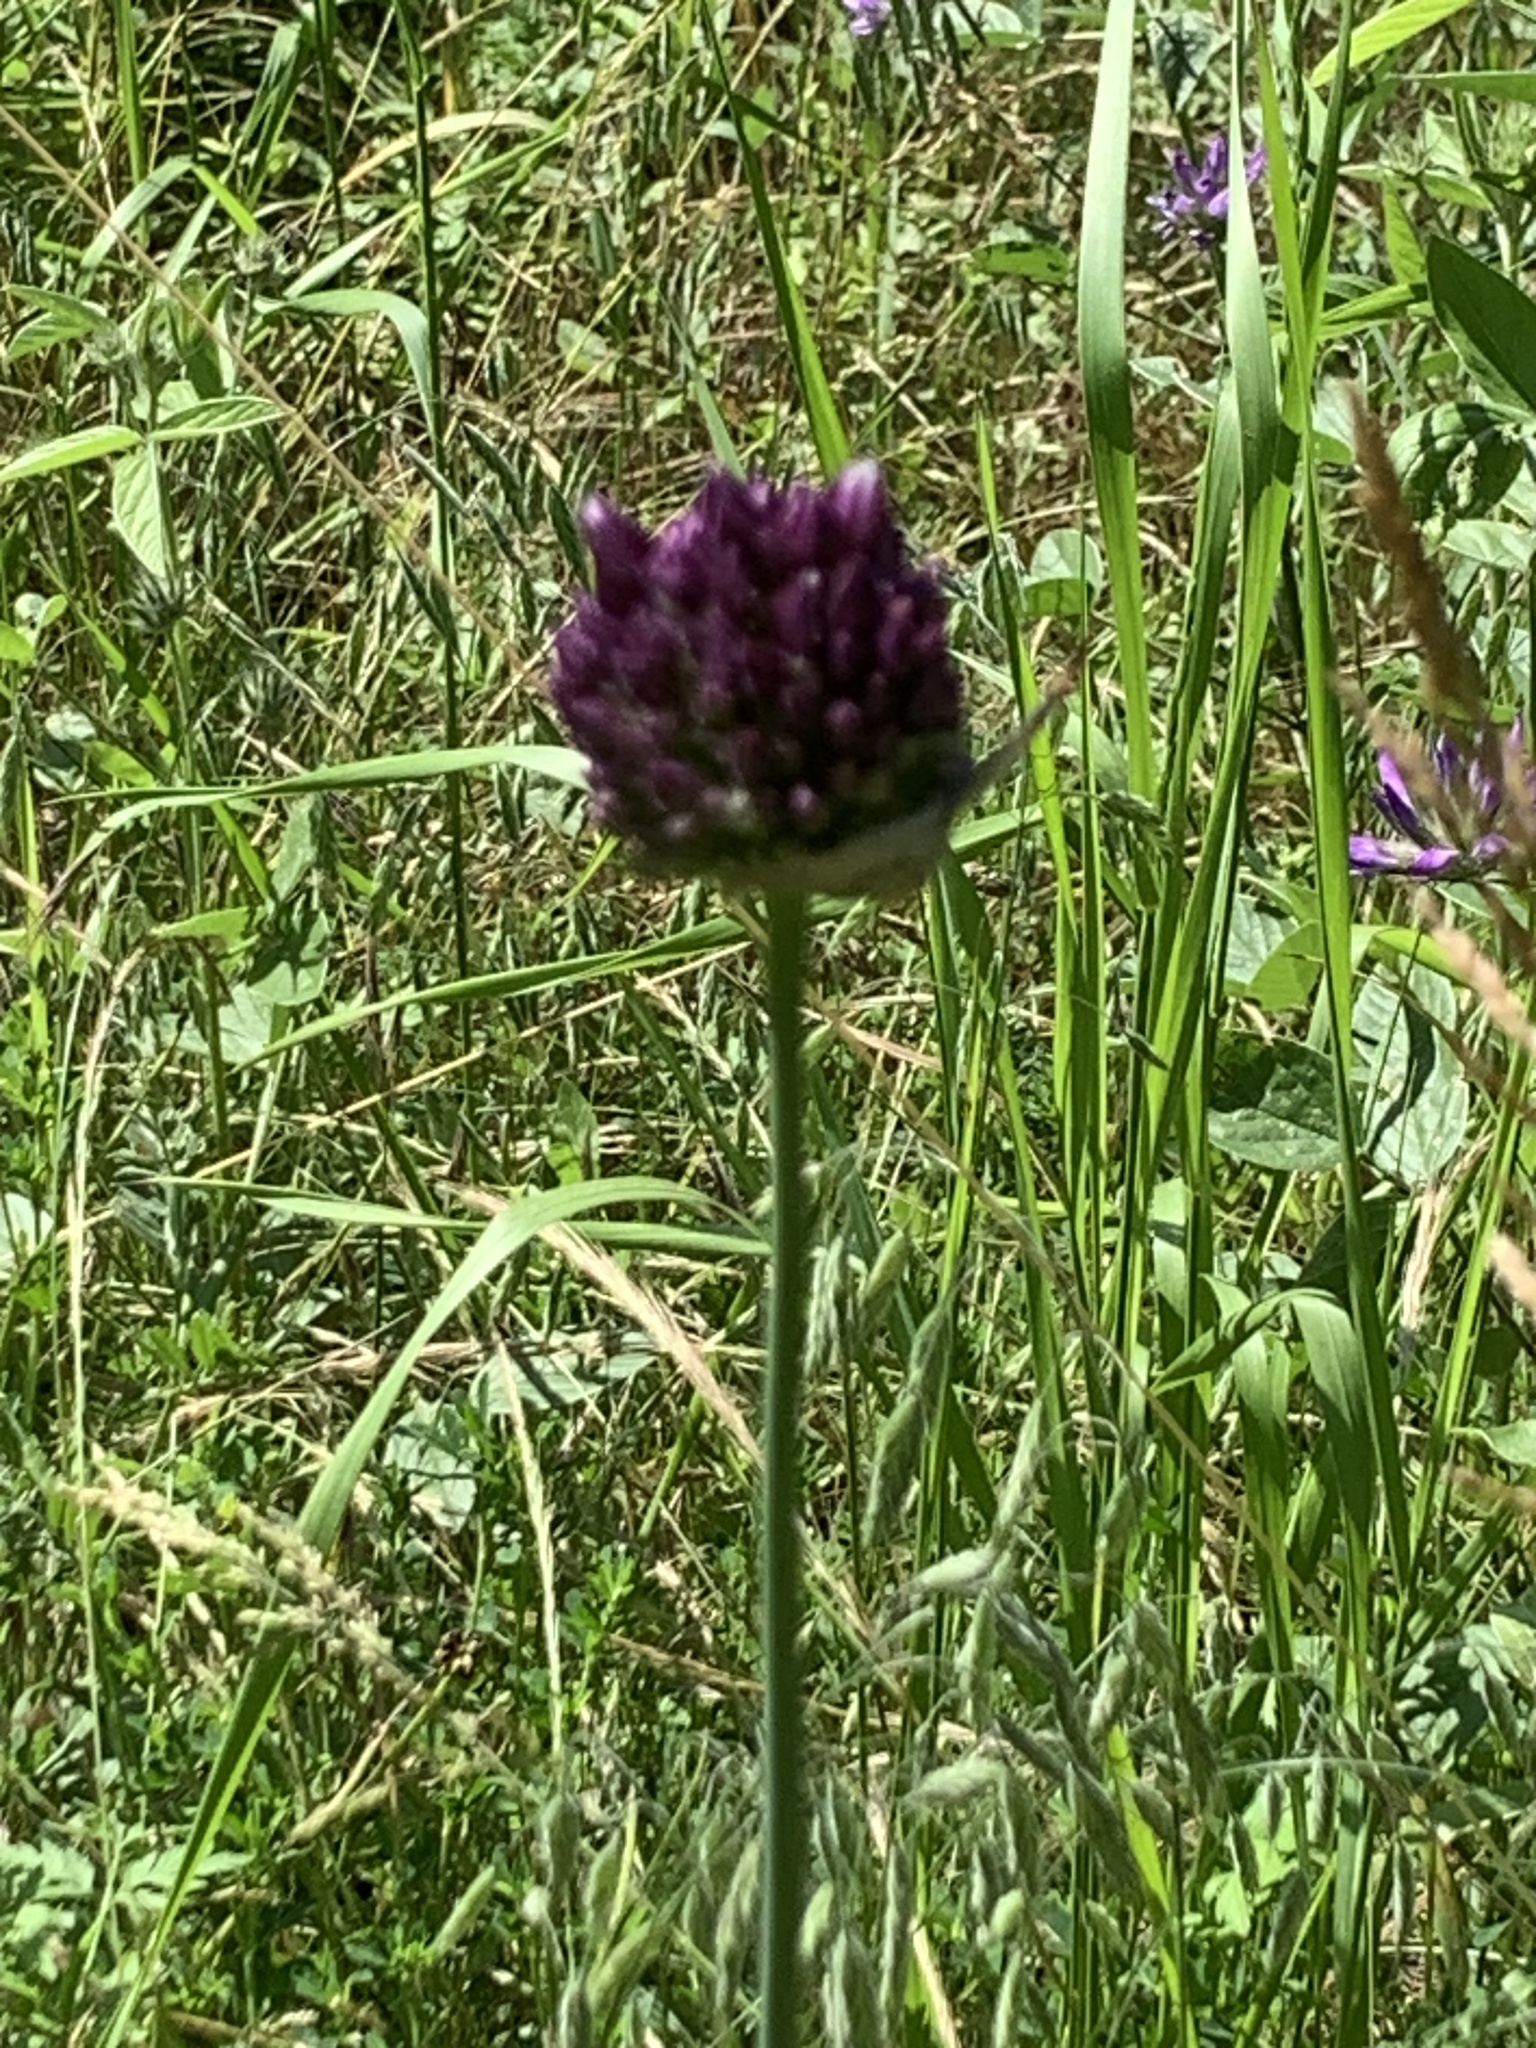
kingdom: Plantae
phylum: Tracheophyta
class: Liliopsida
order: Asparagales
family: Amaryllidaceae
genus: Allium
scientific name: Allium rotundum
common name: Sand leek
